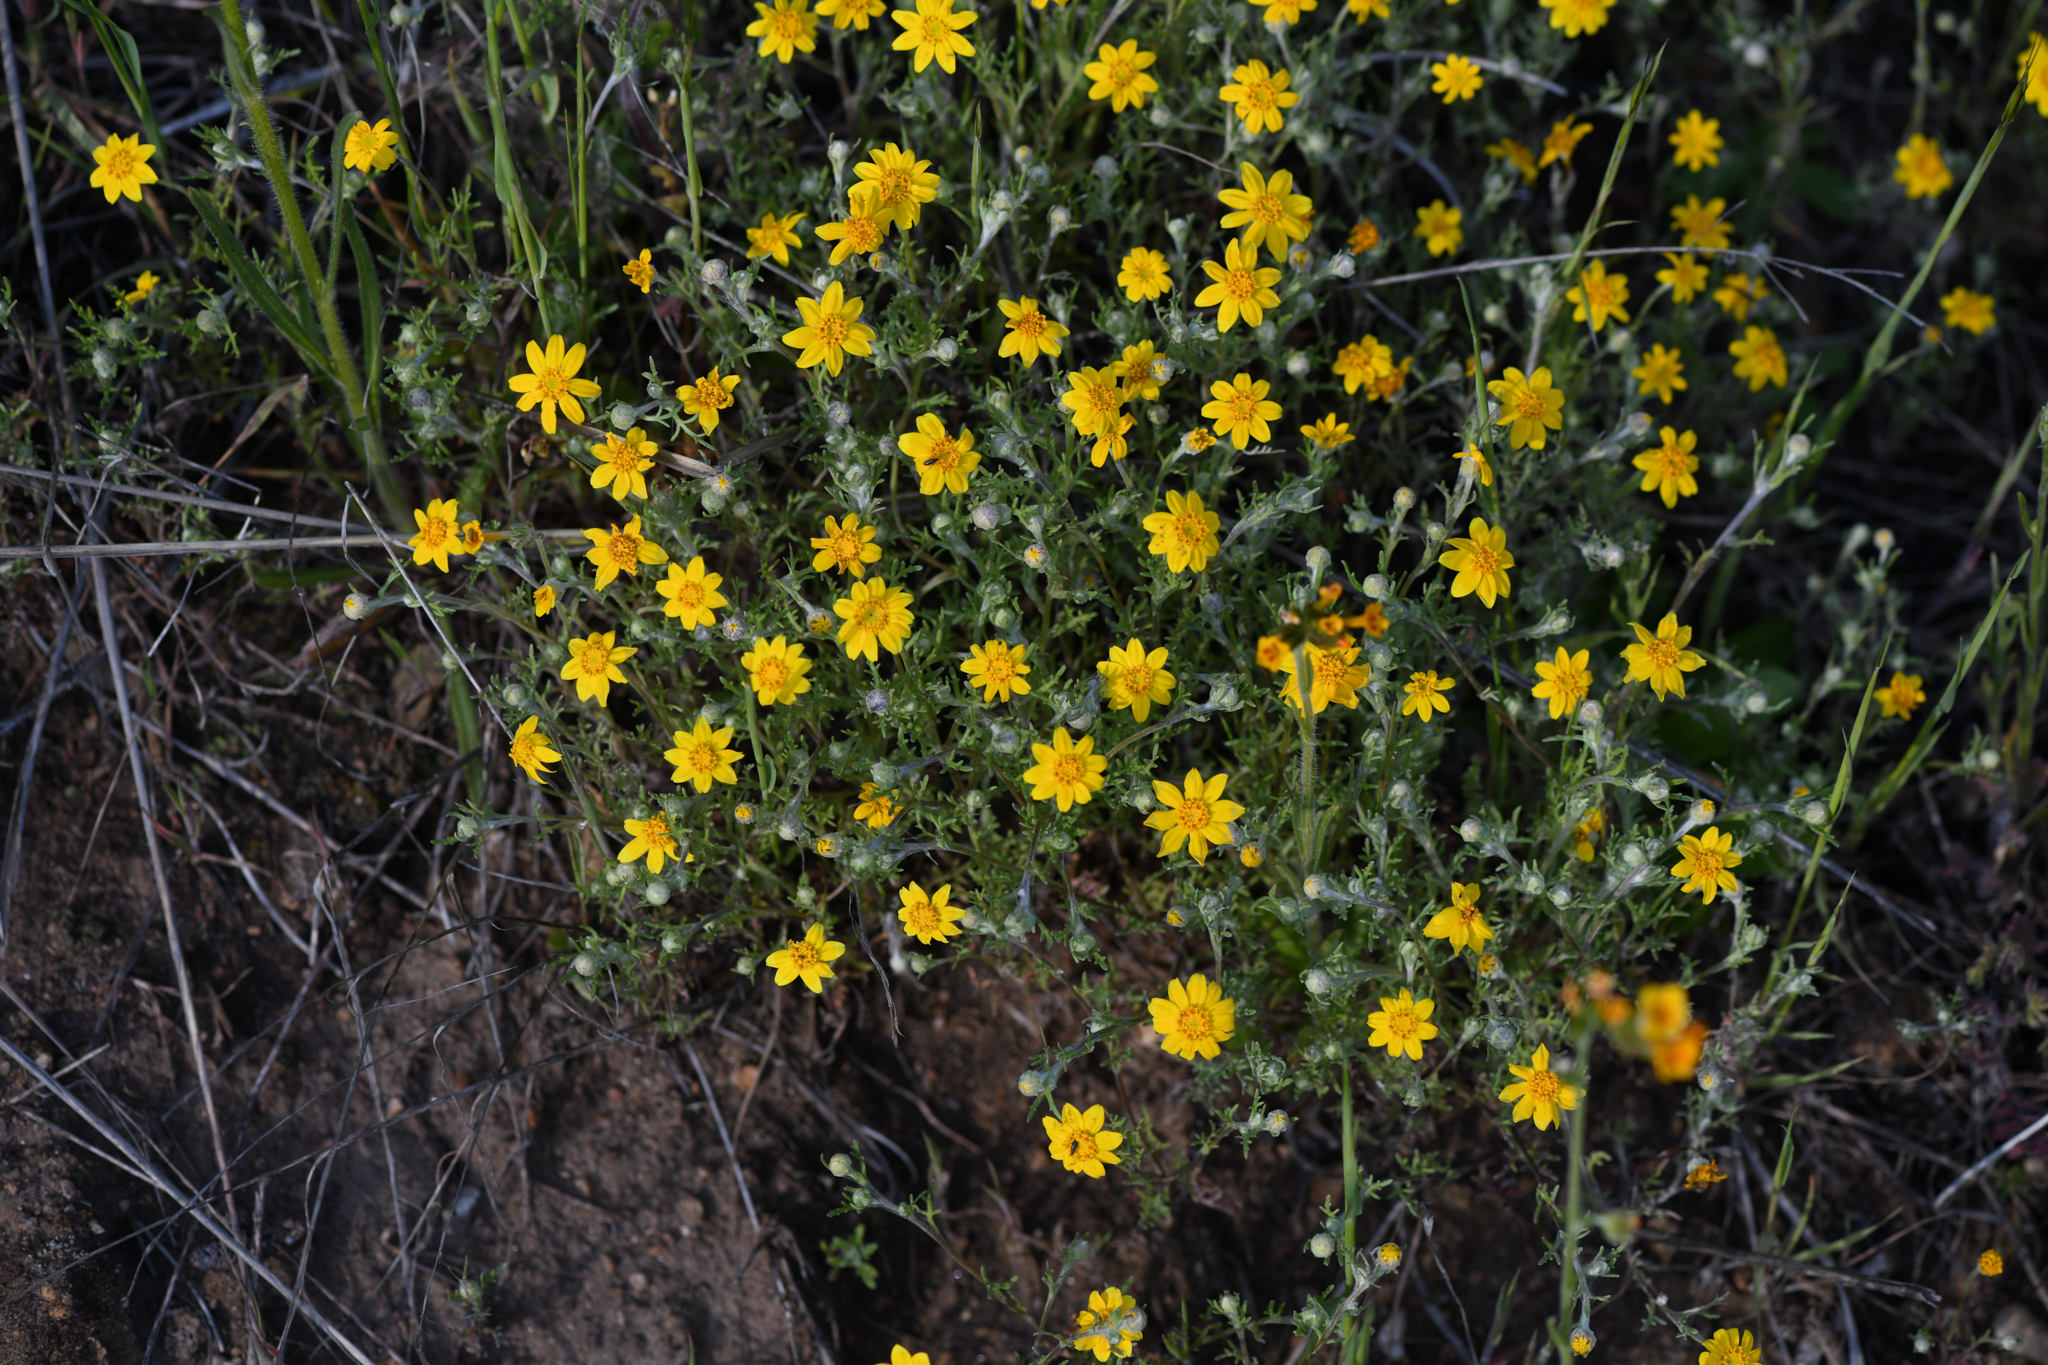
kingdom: Plantae
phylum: Tracheophyta
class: Magnoliopsida
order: Asterales
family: Asteraceae
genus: Pseudobahia
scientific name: Pseudobahia heermannii
